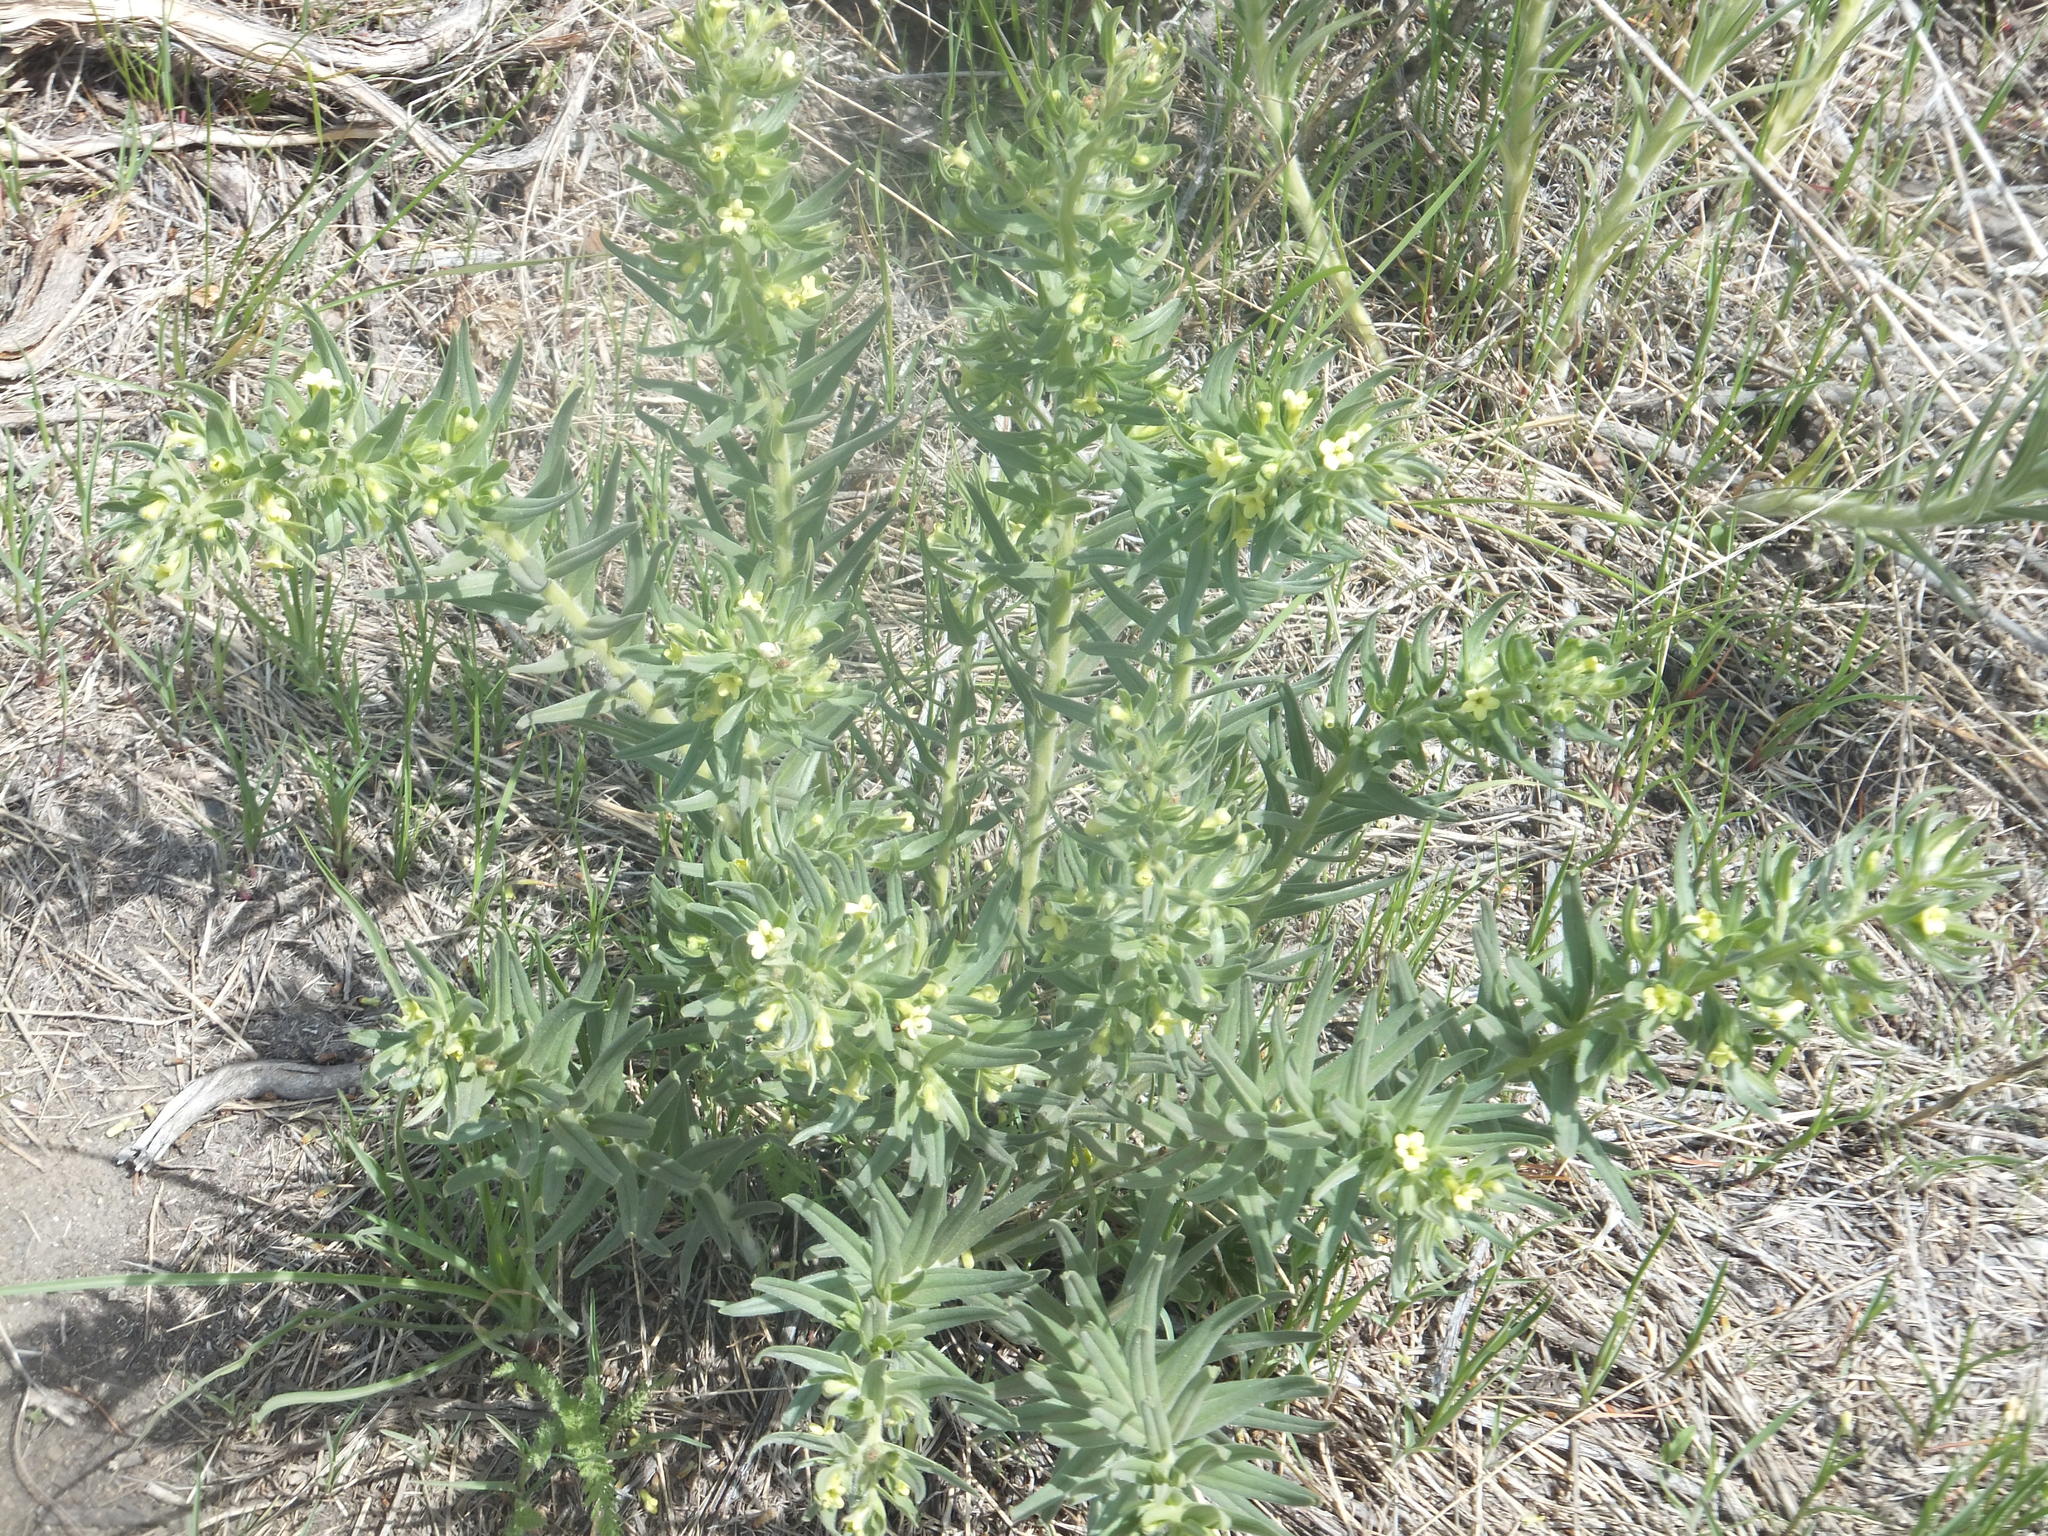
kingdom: Plantae
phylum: Tracheophyta
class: Magnoliopsida
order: Boraginales
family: Boraginaceae
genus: Lithospermum
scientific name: Lithospermum ruderale
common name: Western gromwell
